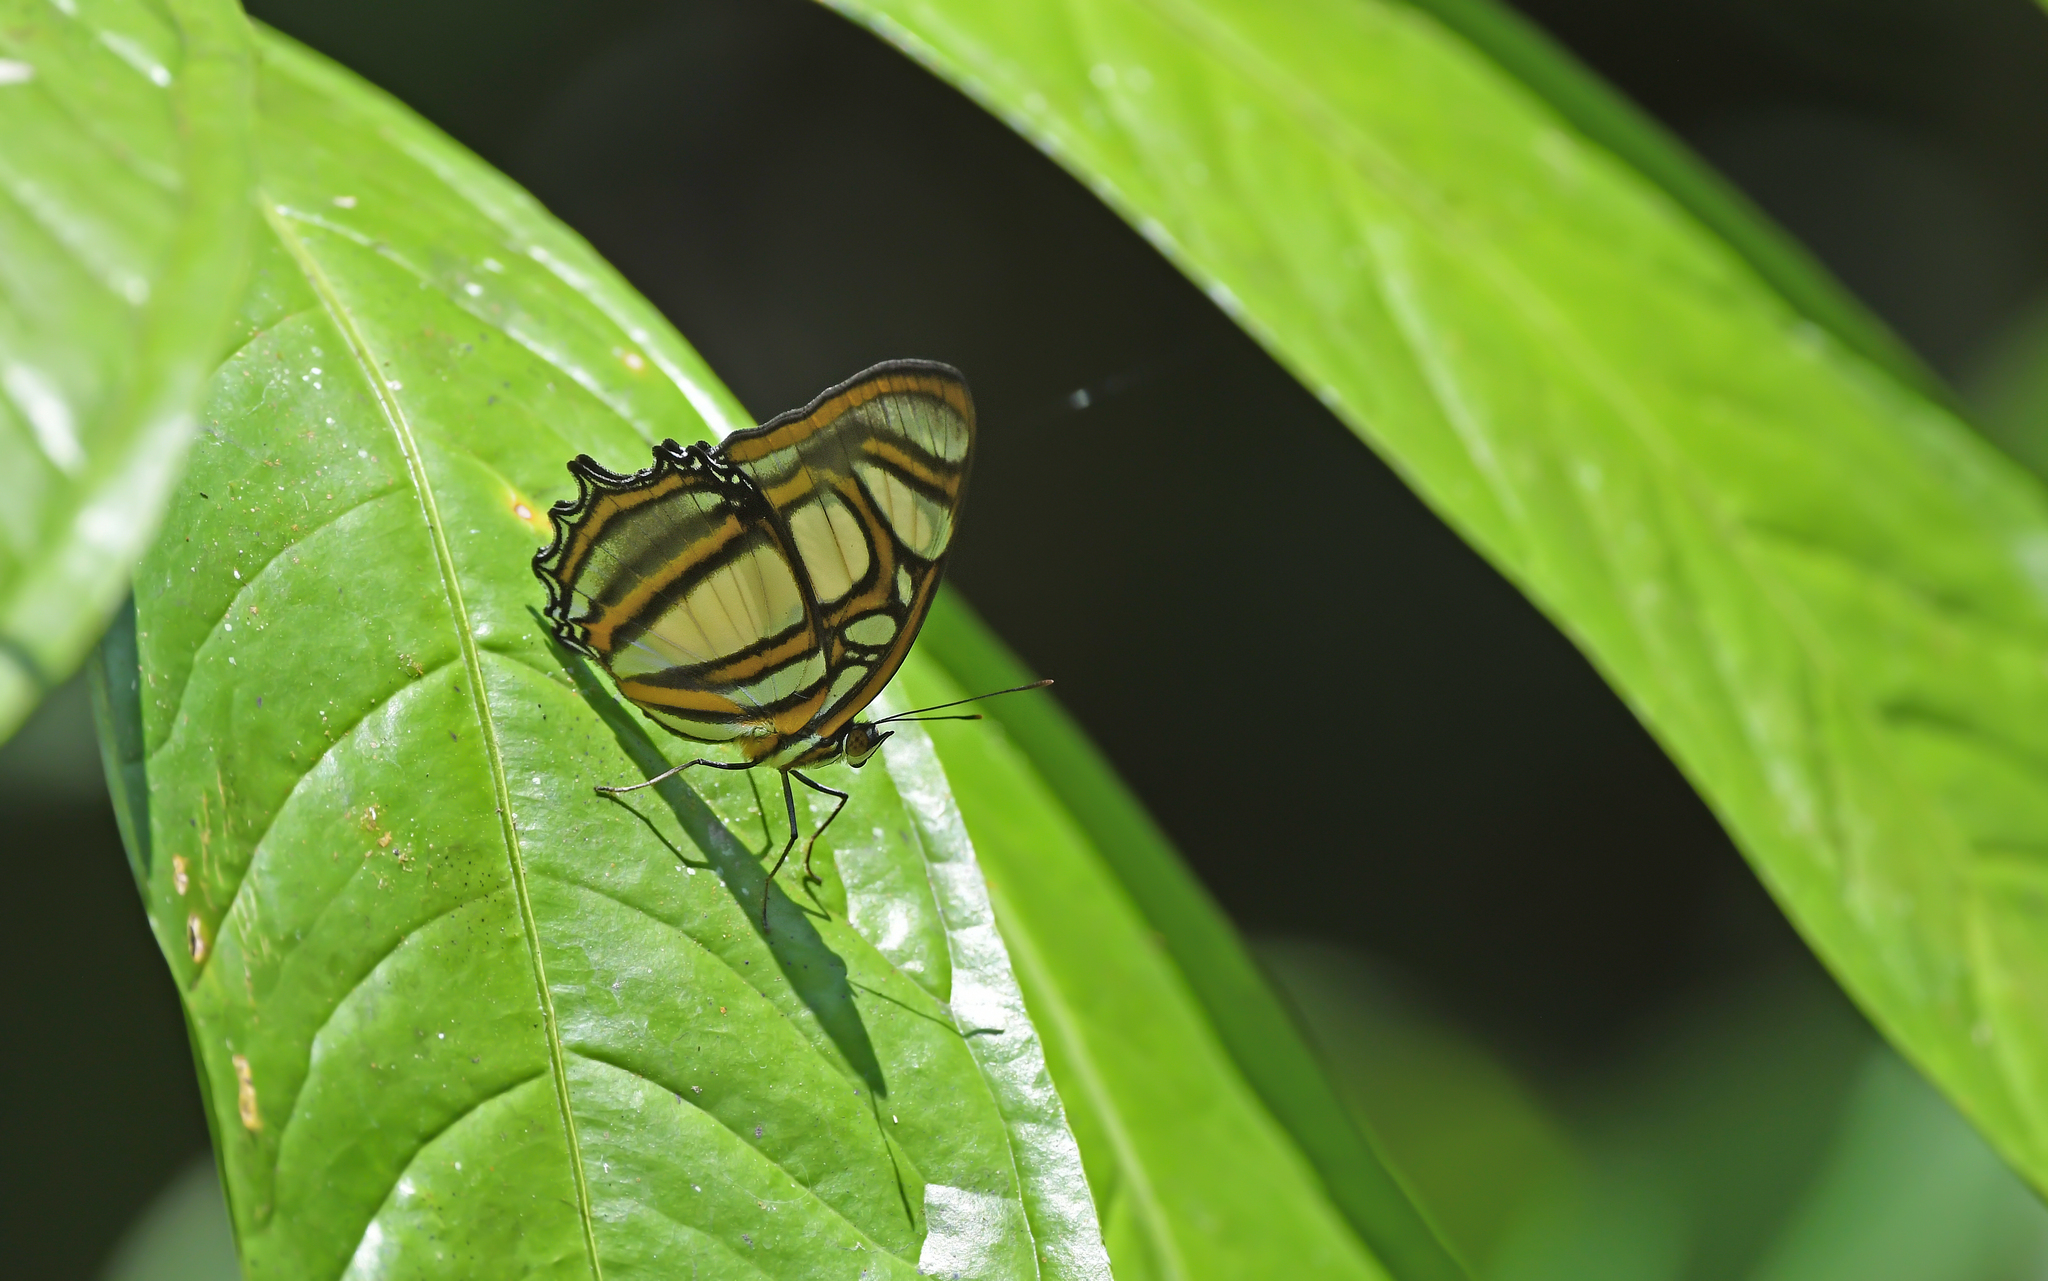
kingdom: Animalia
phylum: Arthropoda
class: Insecta
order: Lepidoptera
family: Nymphalidae
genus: Metamorpha
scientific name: Metamorpha elissa
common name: Elissa page
